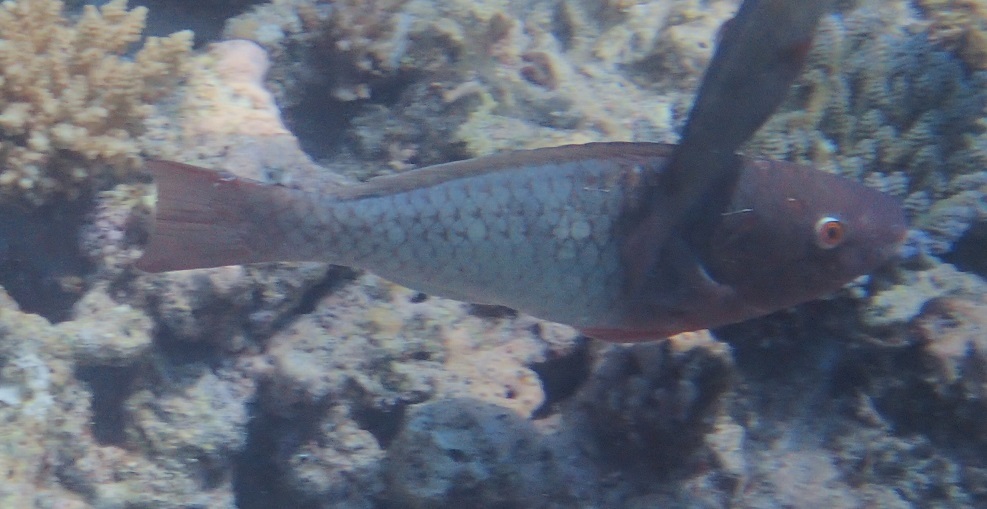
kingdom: Animalia
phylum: Chordata
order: Perciformes
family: Scaridae
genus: Scarus
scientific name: Scarus rubroviolaceus
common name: Ember parrotfish
